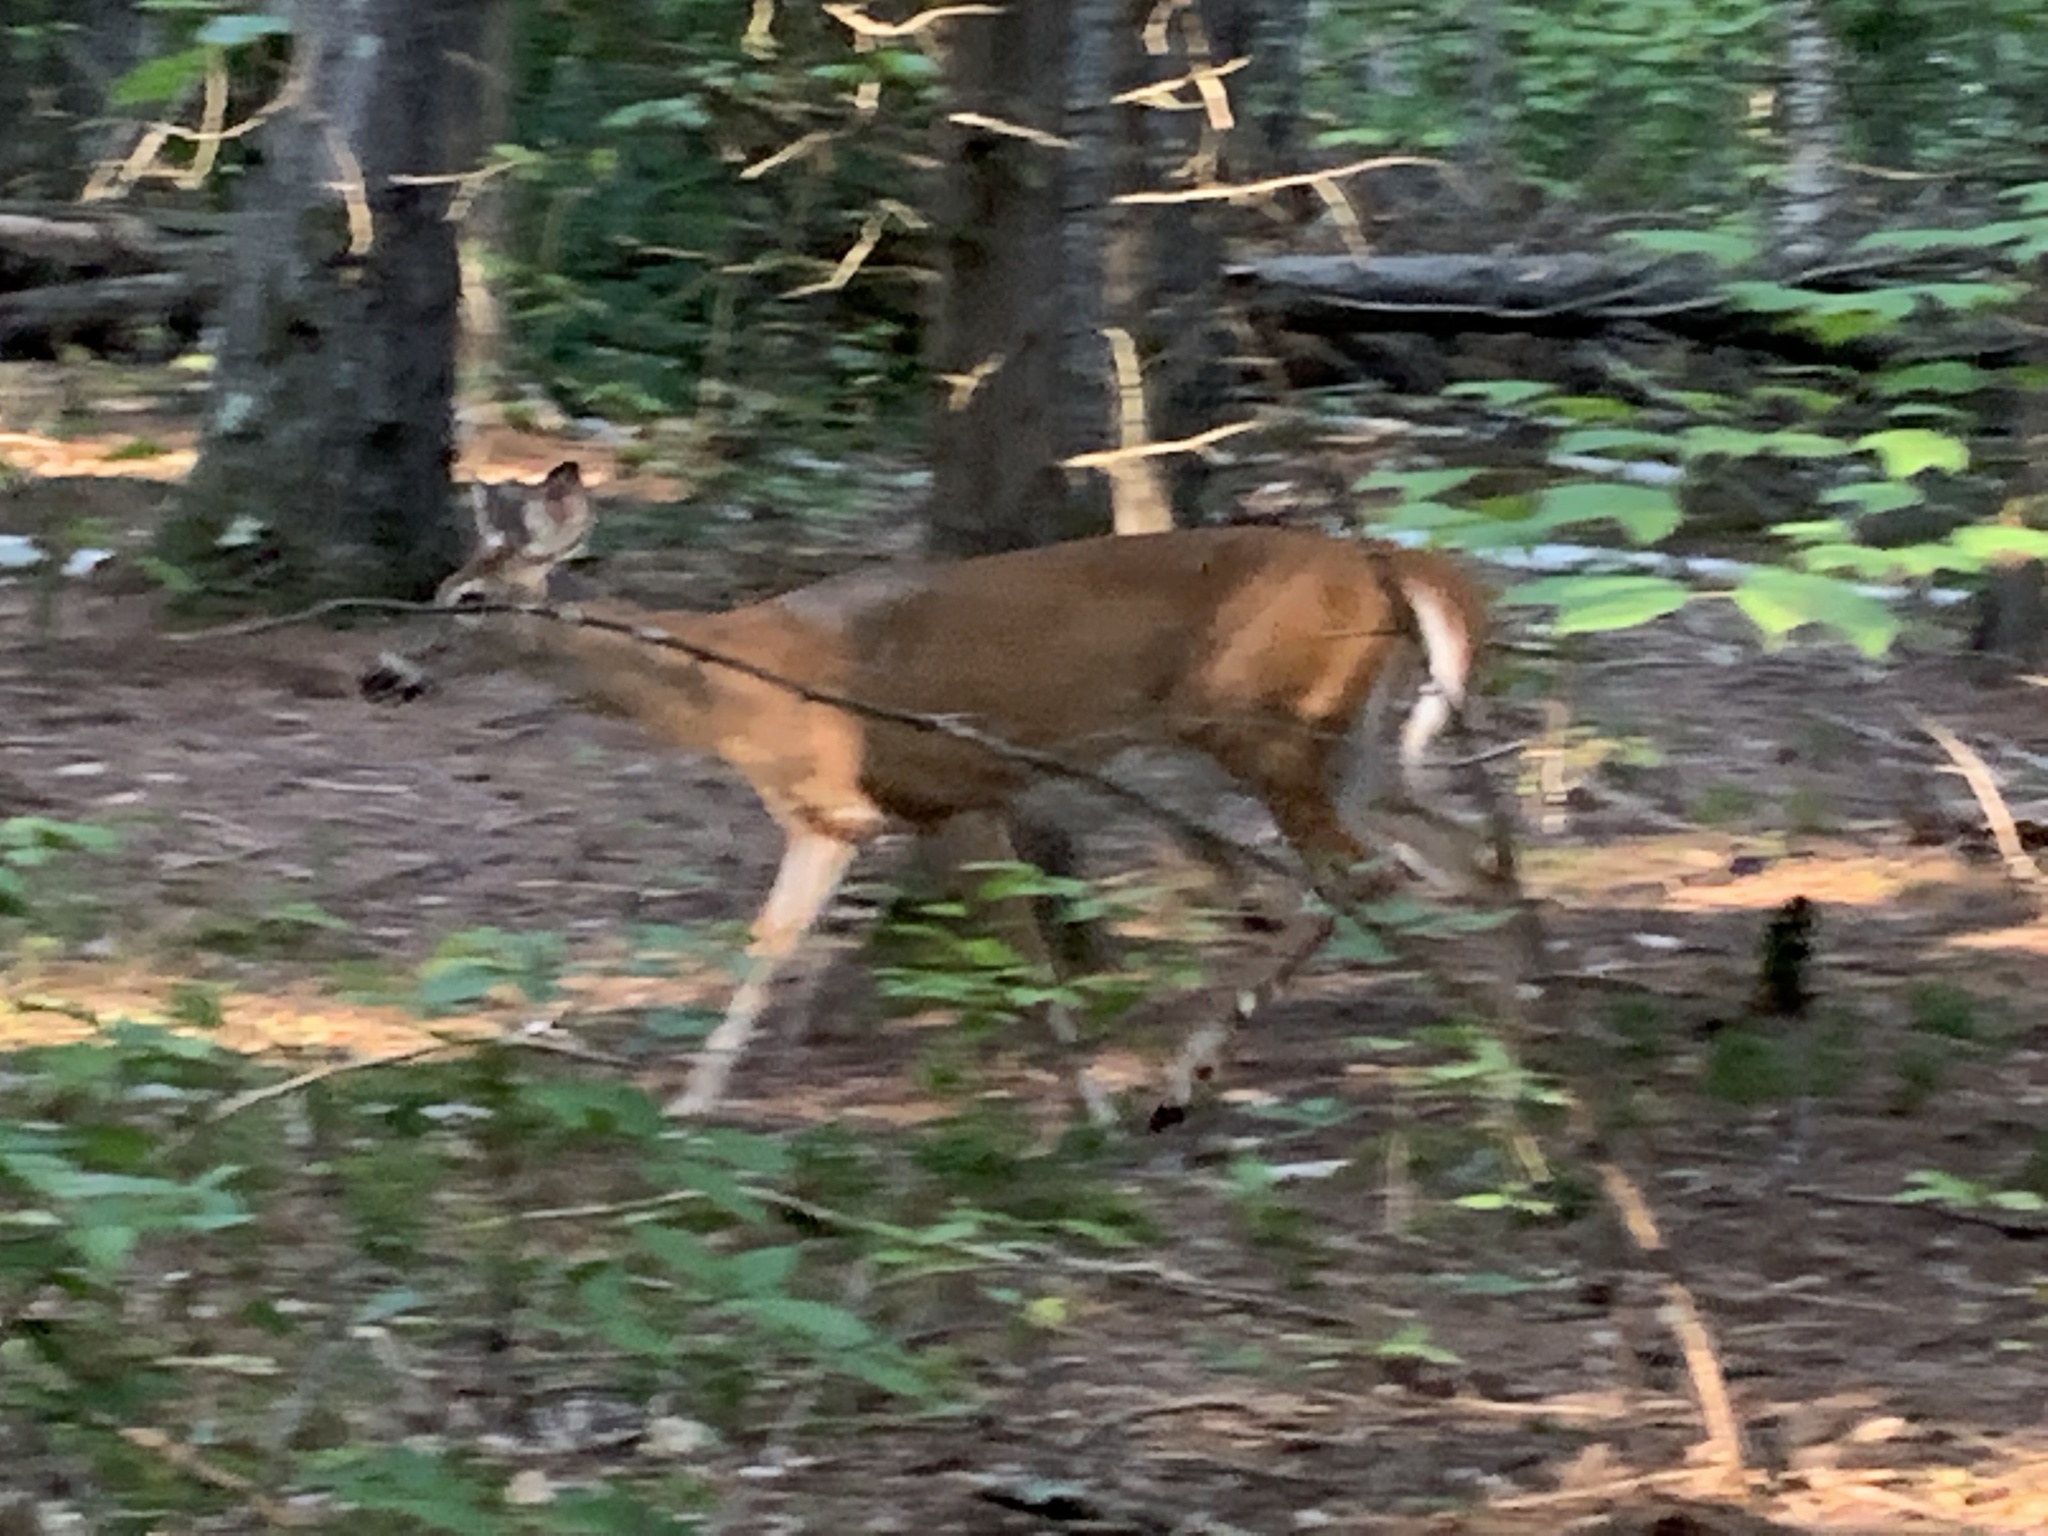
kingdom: Animalia
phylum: Chordata
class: Mammalia
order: Artiodactyla
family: Cervidae
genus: Odocoileus
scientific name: Odocoileus virginianus
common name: White-tailed deer
